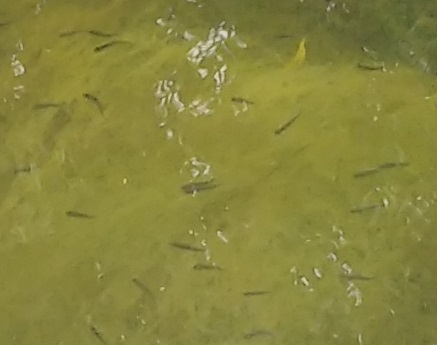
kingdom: Animalia
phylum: Chordata
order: Cypriniformes
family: Cyprinidae
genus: Phoxinus
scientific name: Phoxinus phoxinus
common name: Minnow
